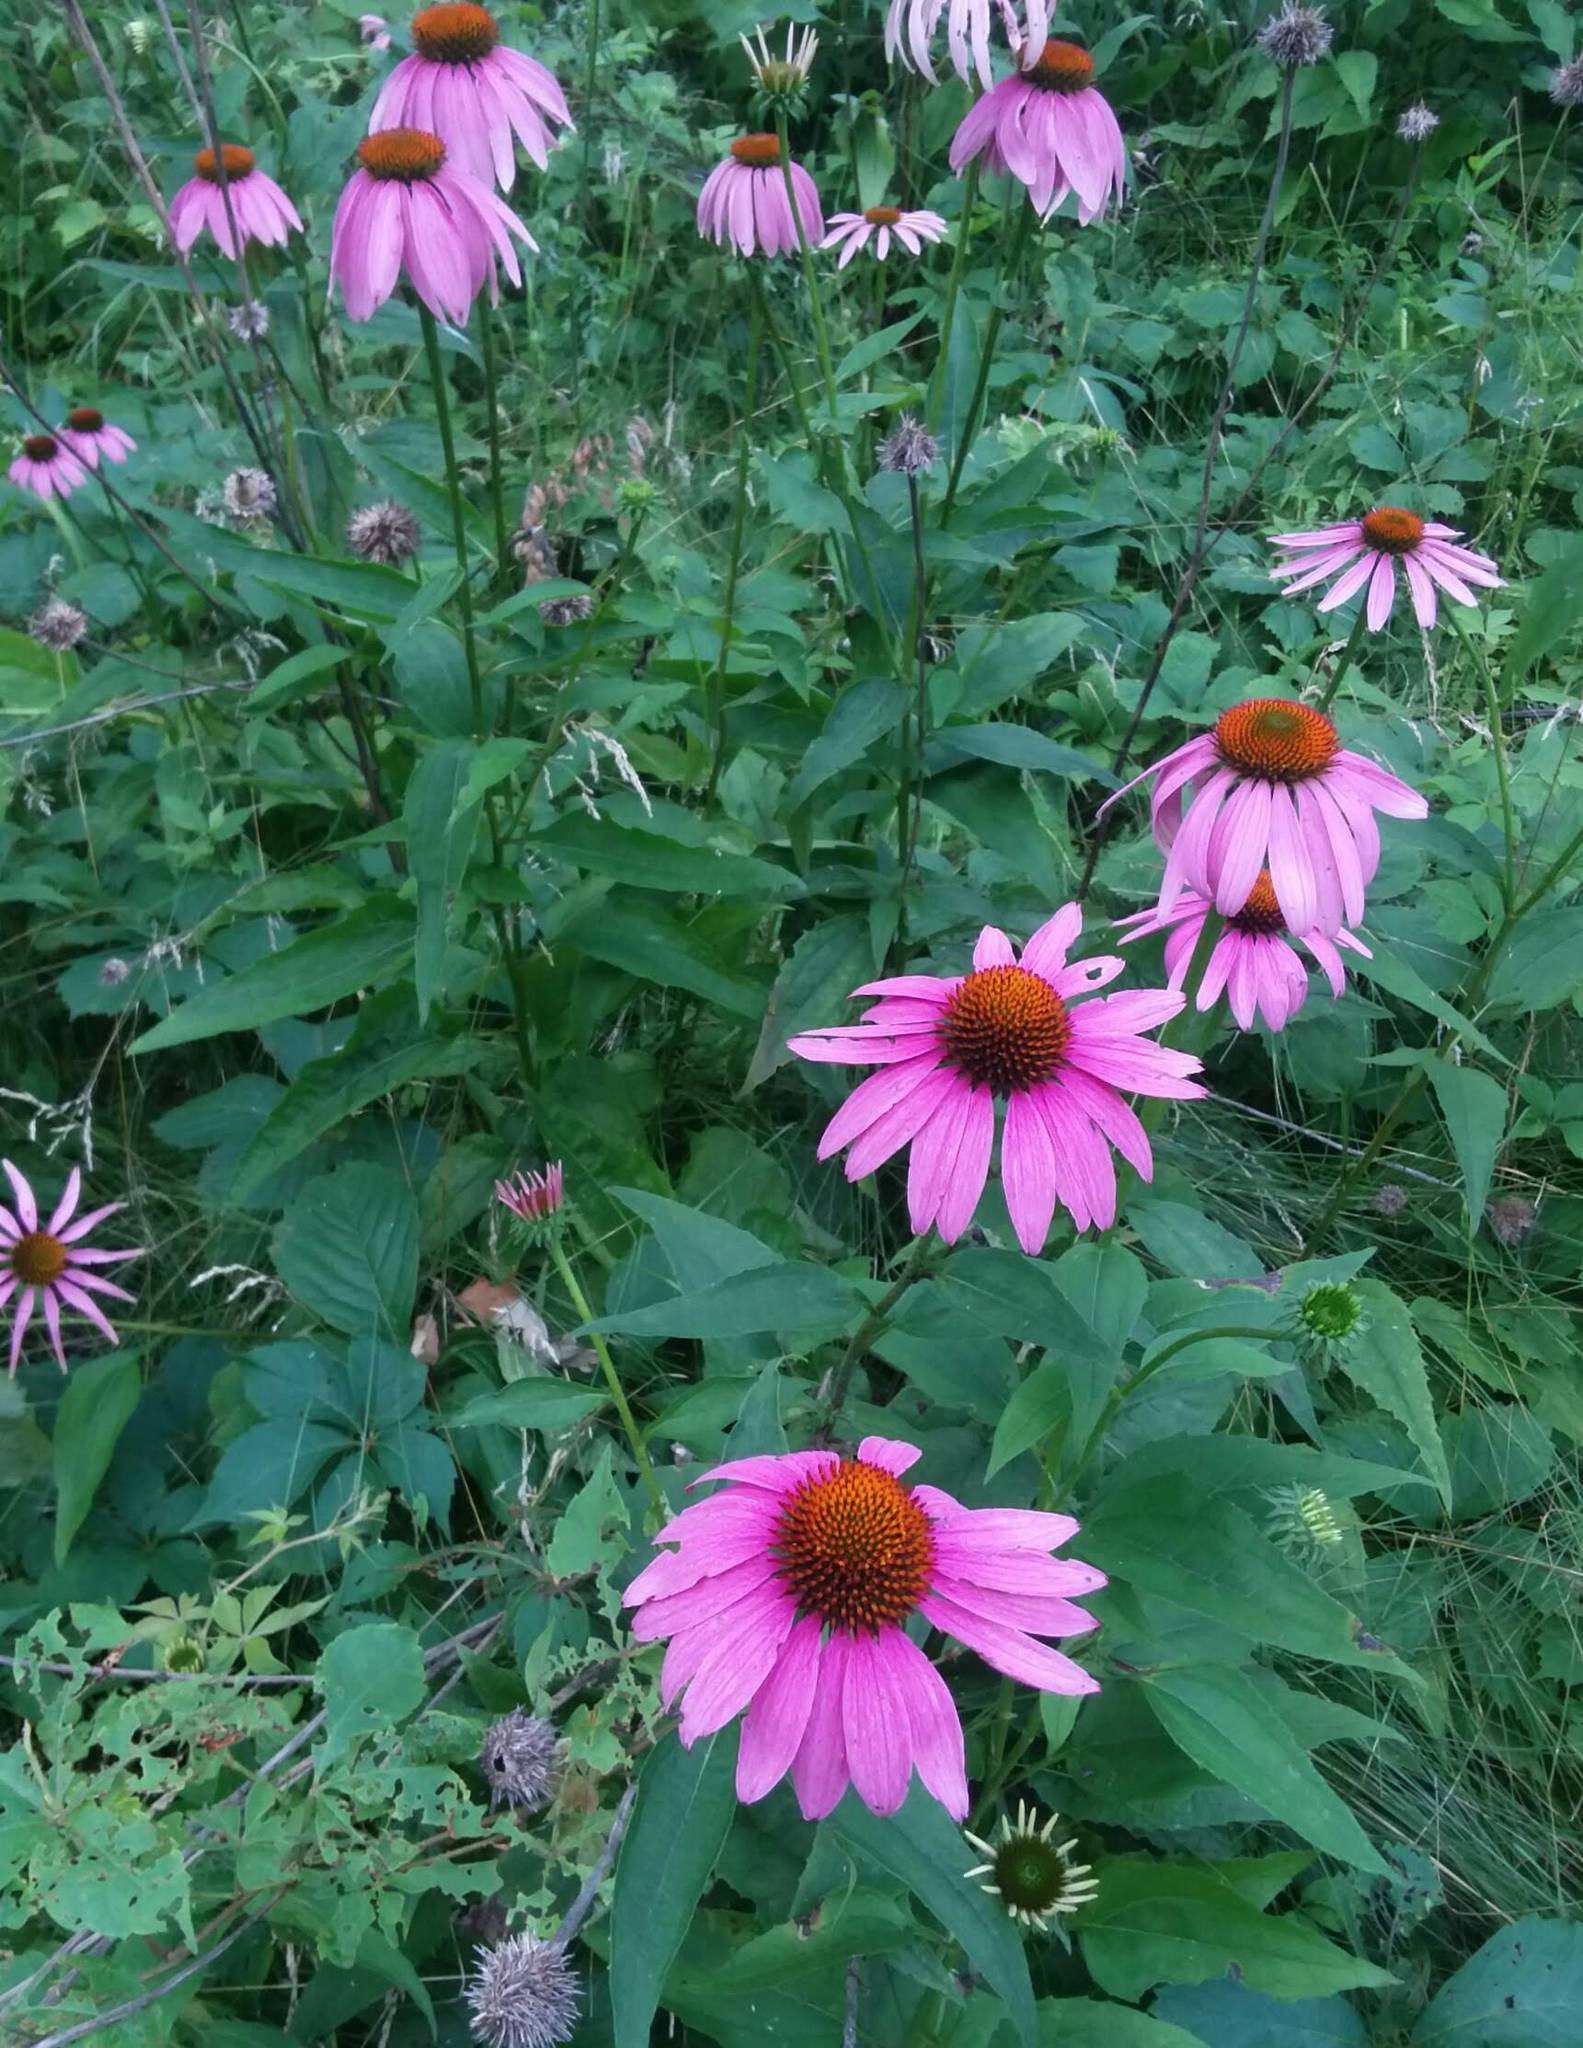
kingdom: Plantae
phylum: Tracheophyta
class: Magnoliopsida
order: Asterales
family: Asteraceae
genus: Echinacea
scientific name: Echinacea purpurea
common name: Broad-leaved purple coneflower
